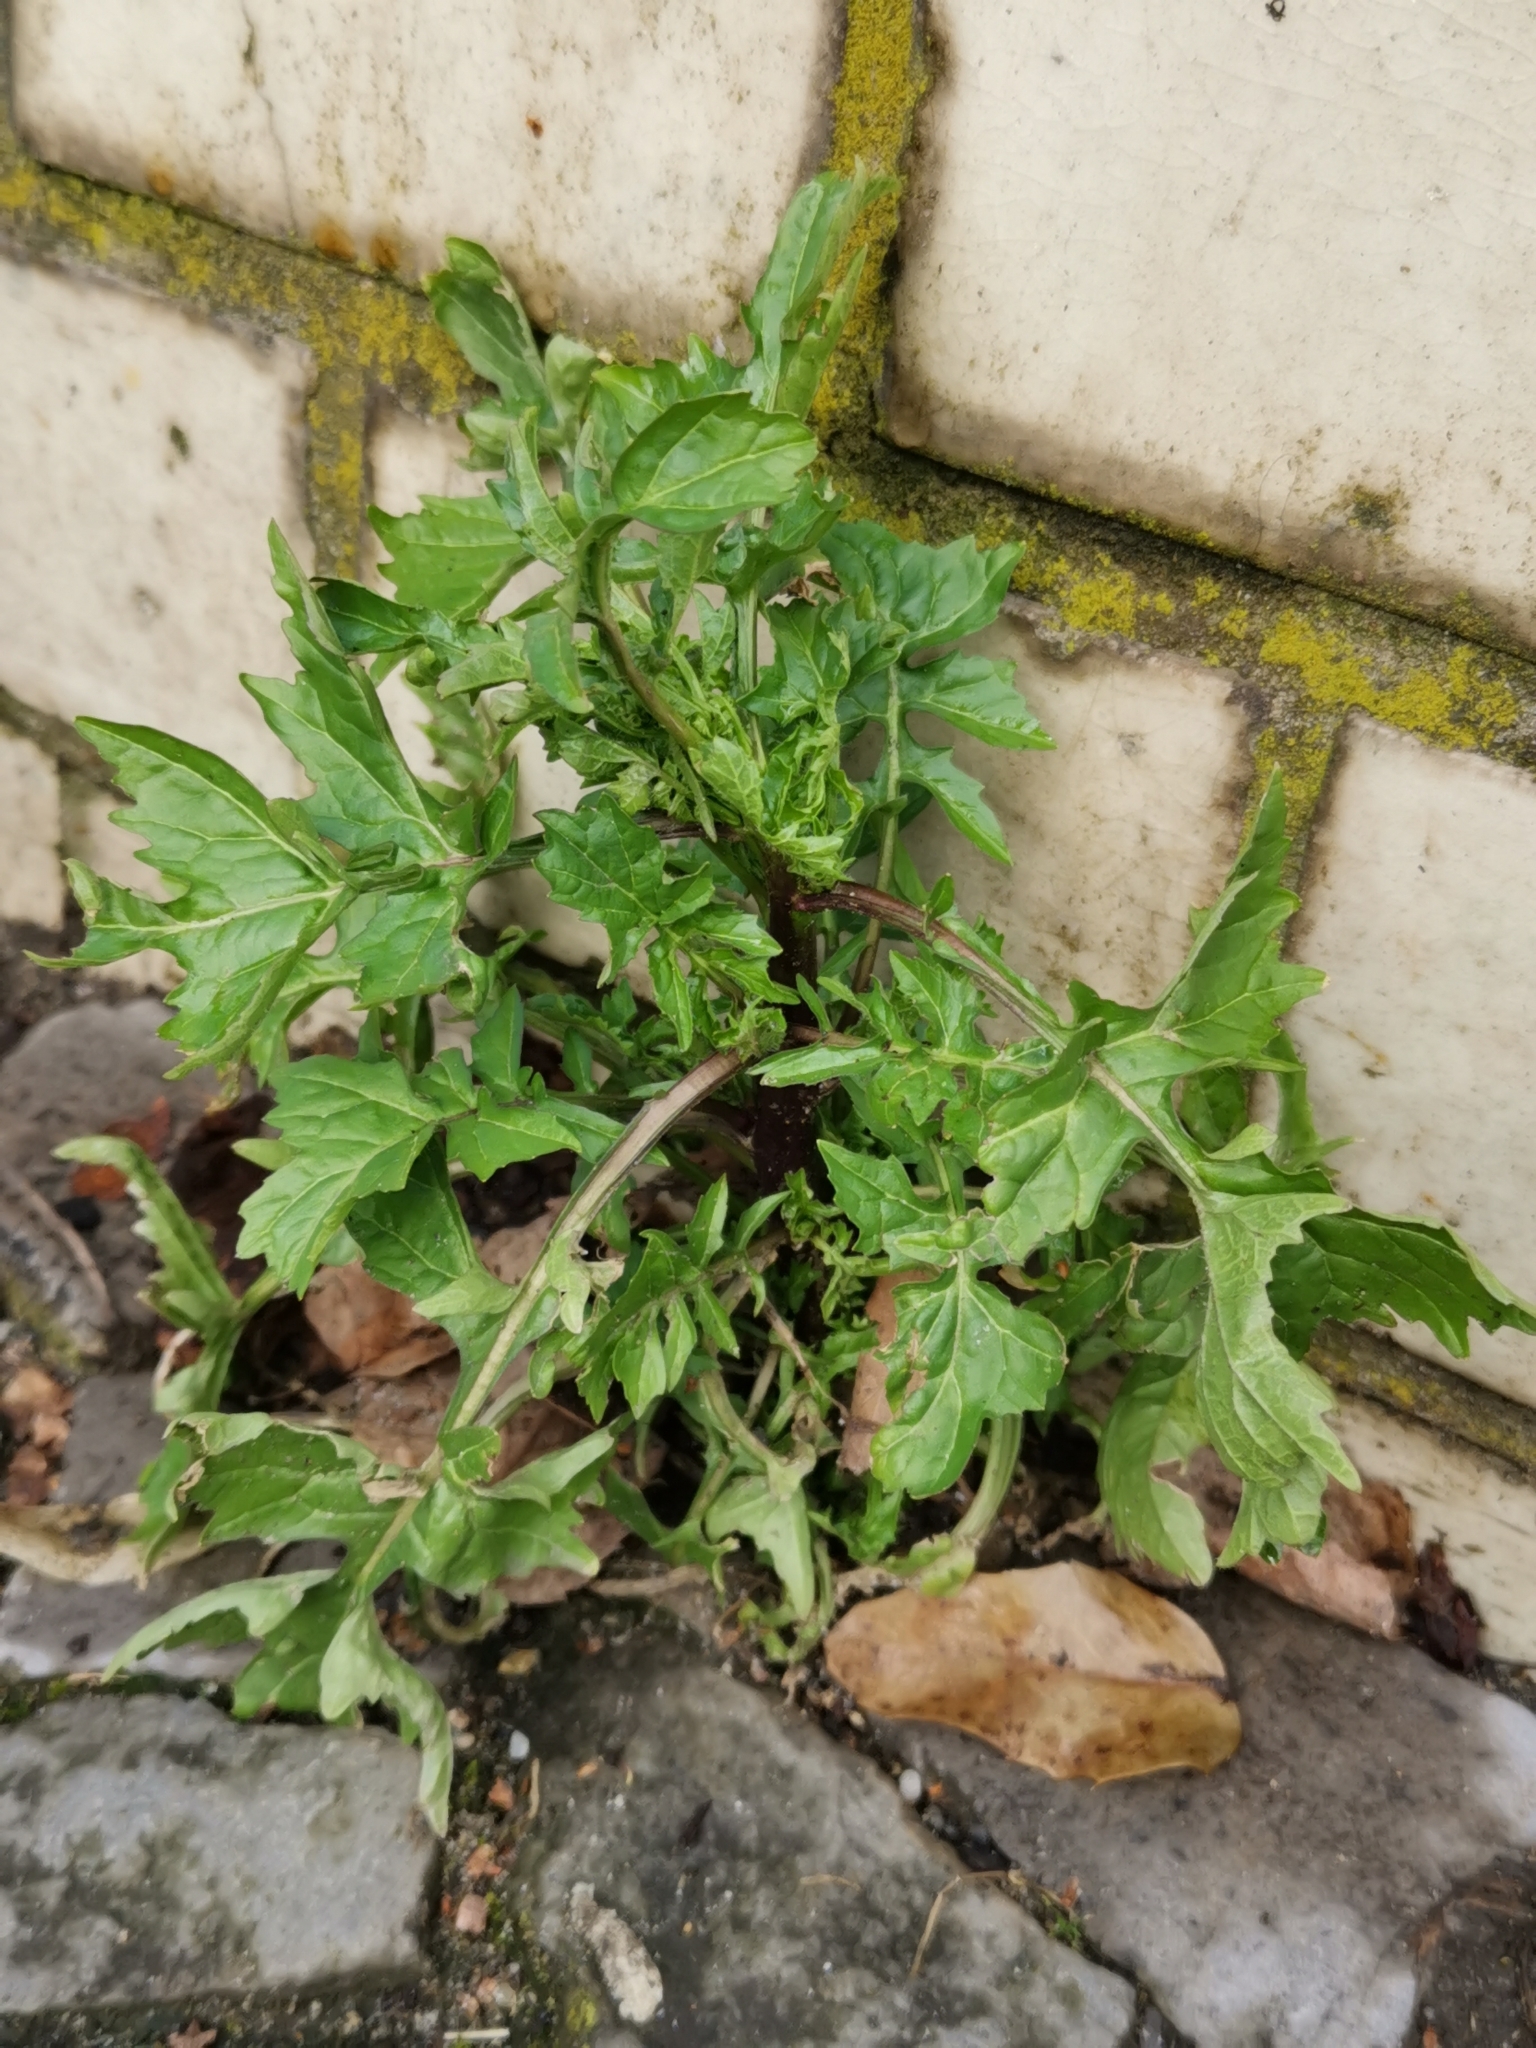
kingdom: Plantae
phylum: Tracheophyta
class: Magnoliopsida
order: Brassicales
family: Brassicaceae
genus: Sisymbrium
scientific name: Sisymbrium officinale
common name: Hedge mustard
